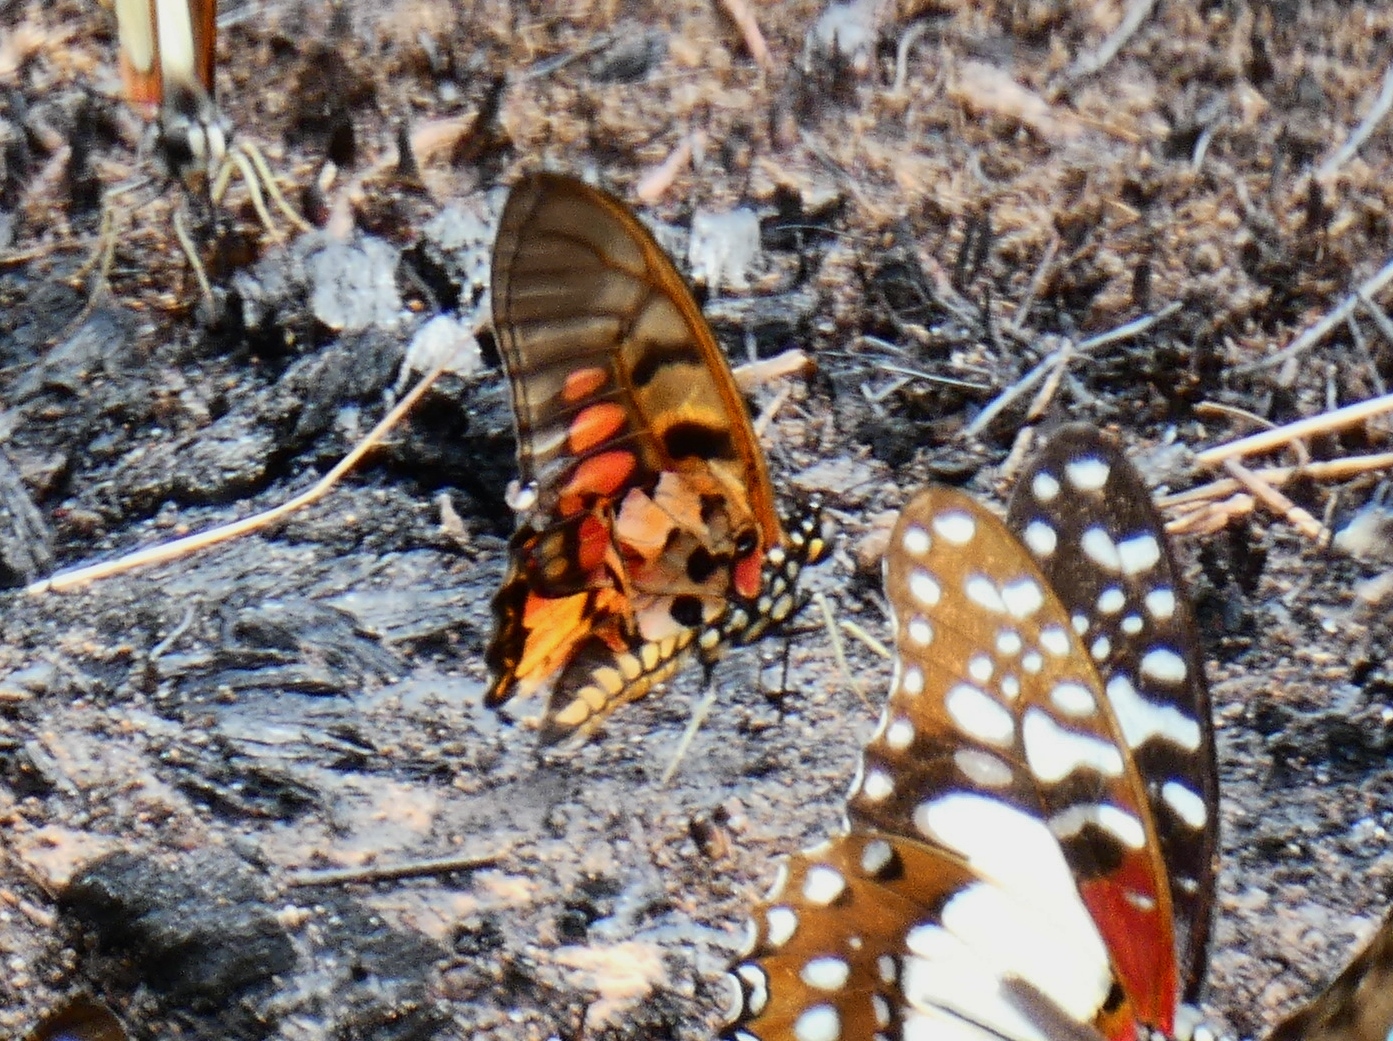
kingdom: Animalia
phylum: Arthropoda
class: Insecta
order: Lepidoptera
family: Papilionidae
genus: Graphium
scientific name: Graphium ridleyanus
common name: Acraea swordtail
